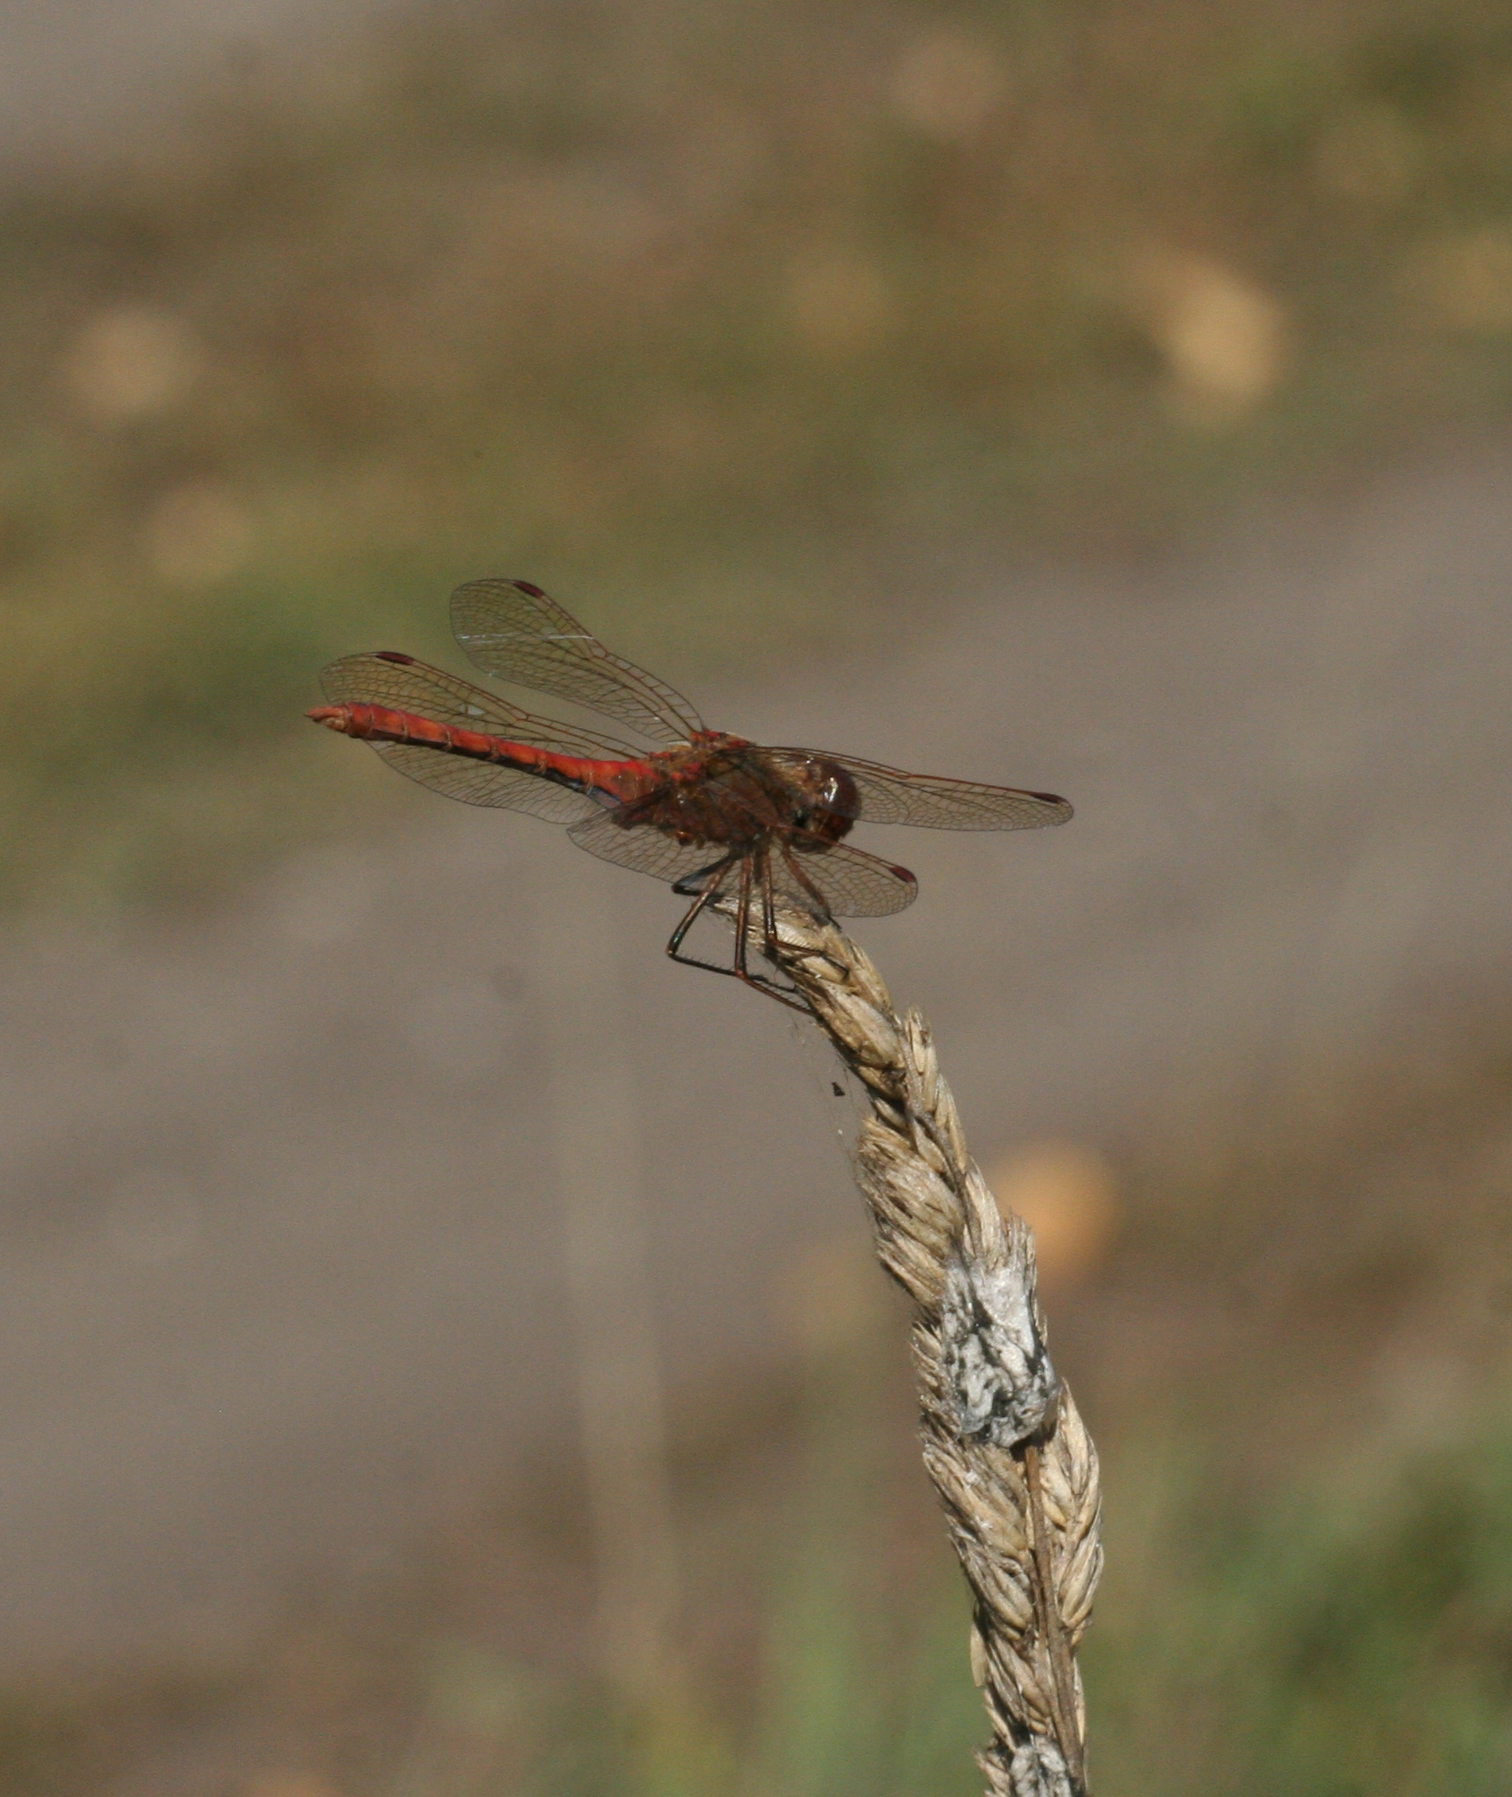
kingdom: Animalia
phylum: Arthropoda
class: Insecta
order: Odonata
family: Libellulidae
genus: Sympetrum
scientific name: Sympetrum vulgatum
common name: Vagrant darter
